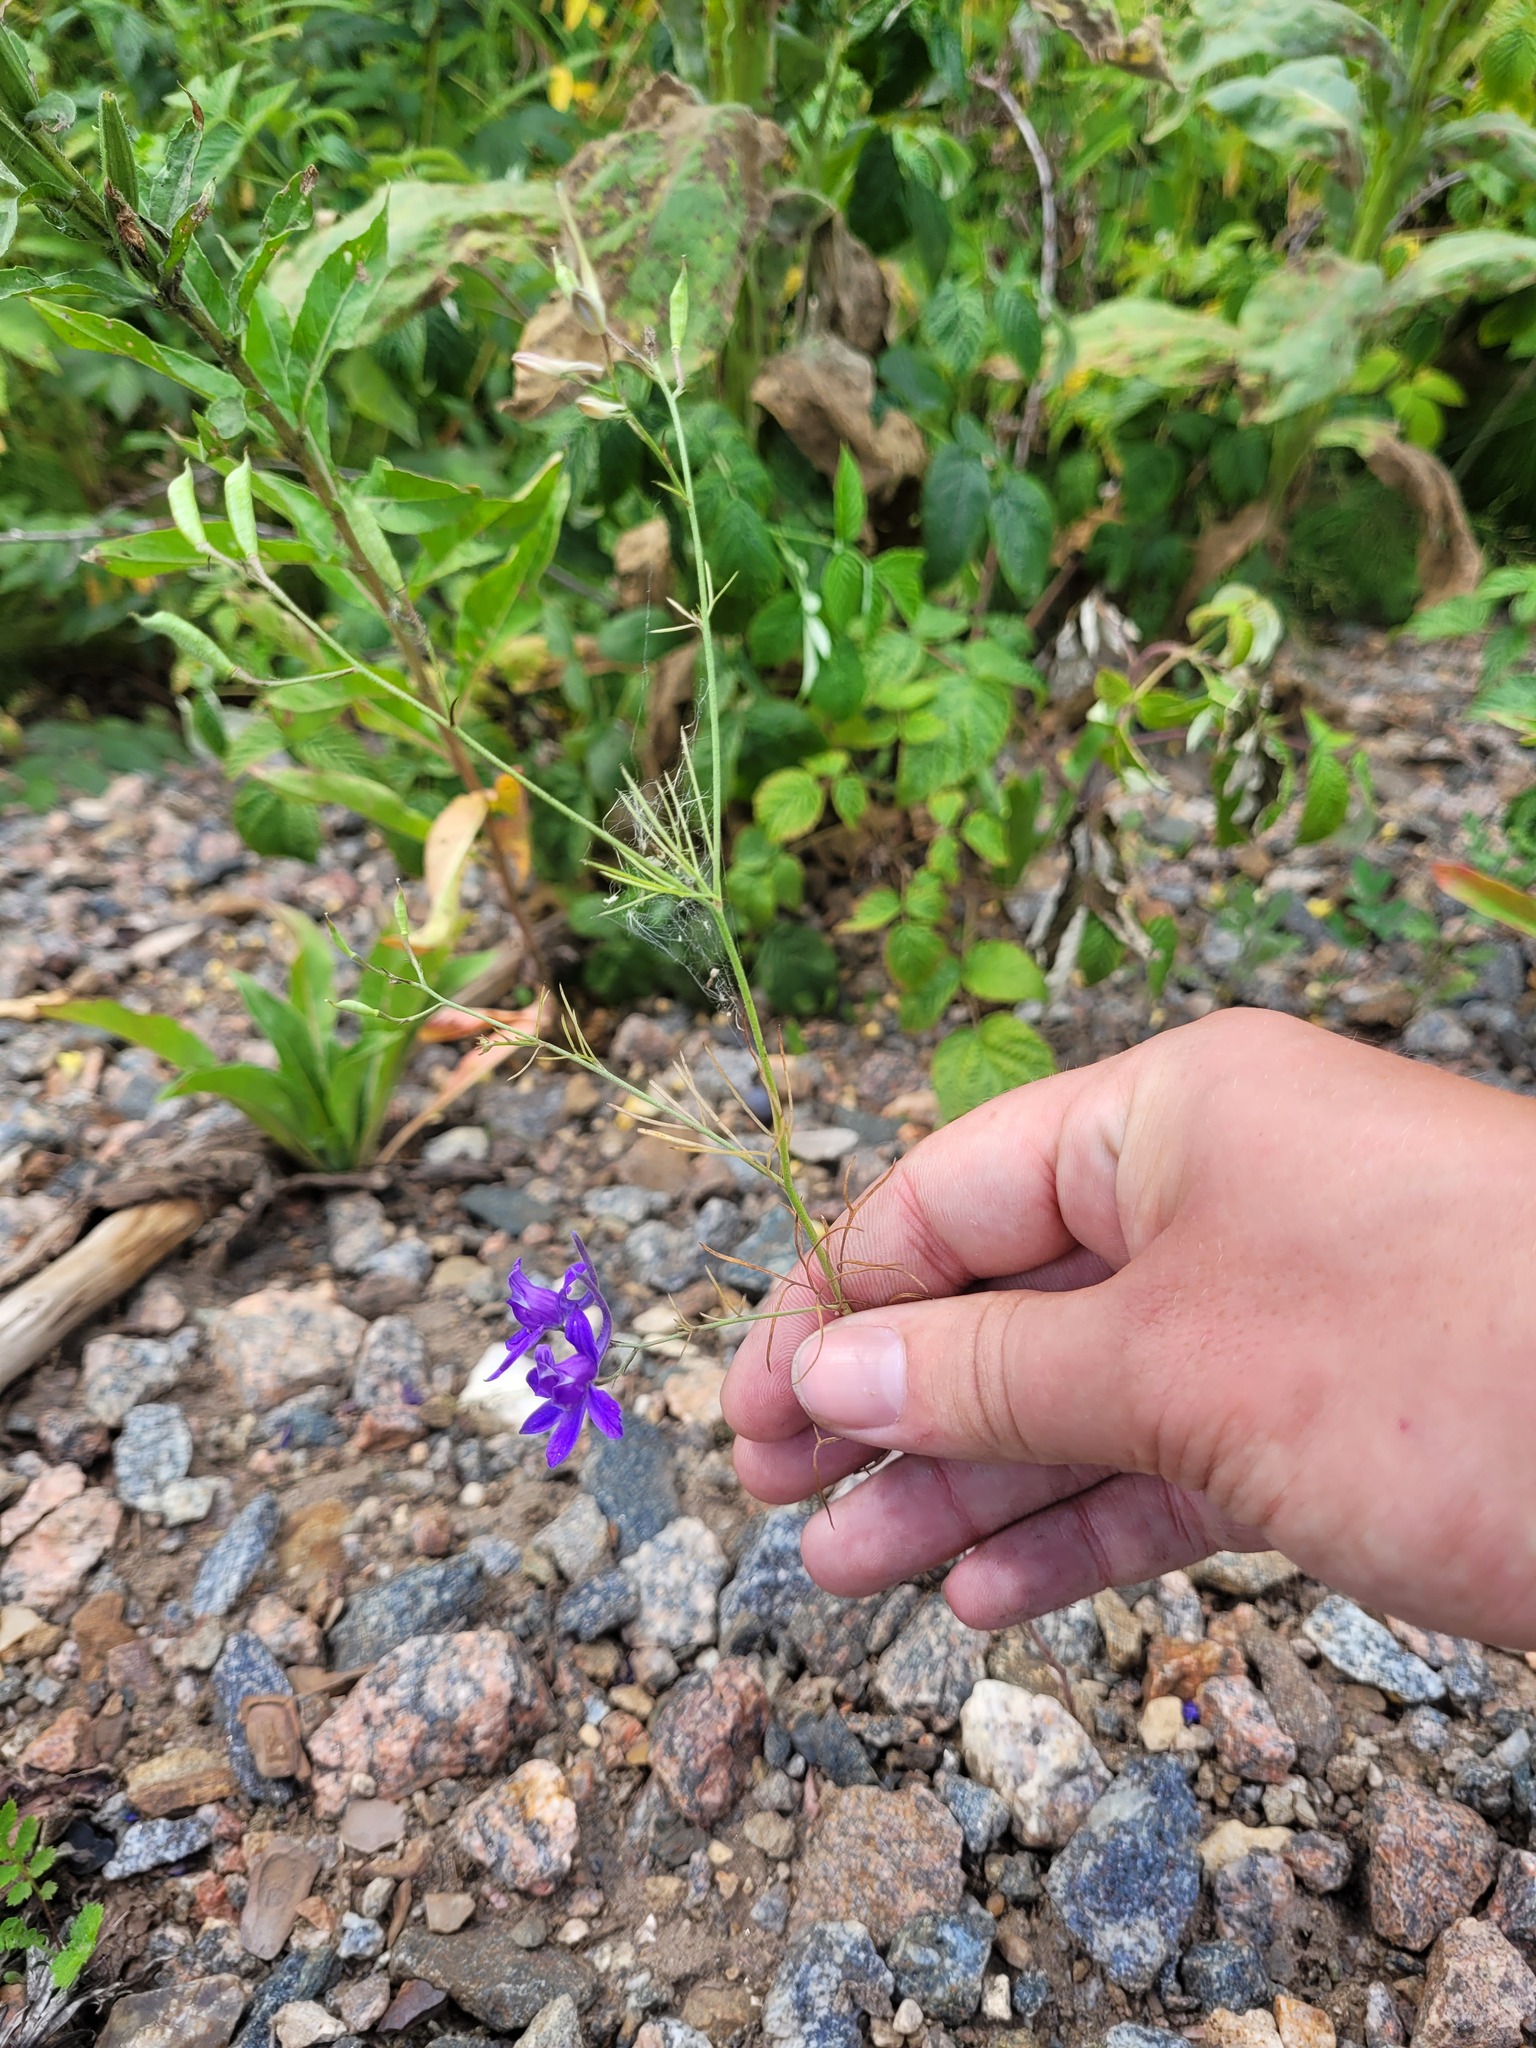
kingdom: Plantae
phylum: Tracheophyta
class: Magnoliopsida
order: Ranunculales
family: Ranunculaceae
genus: Delphinium
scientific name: Delphinium consolida
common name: Branching larkspur
